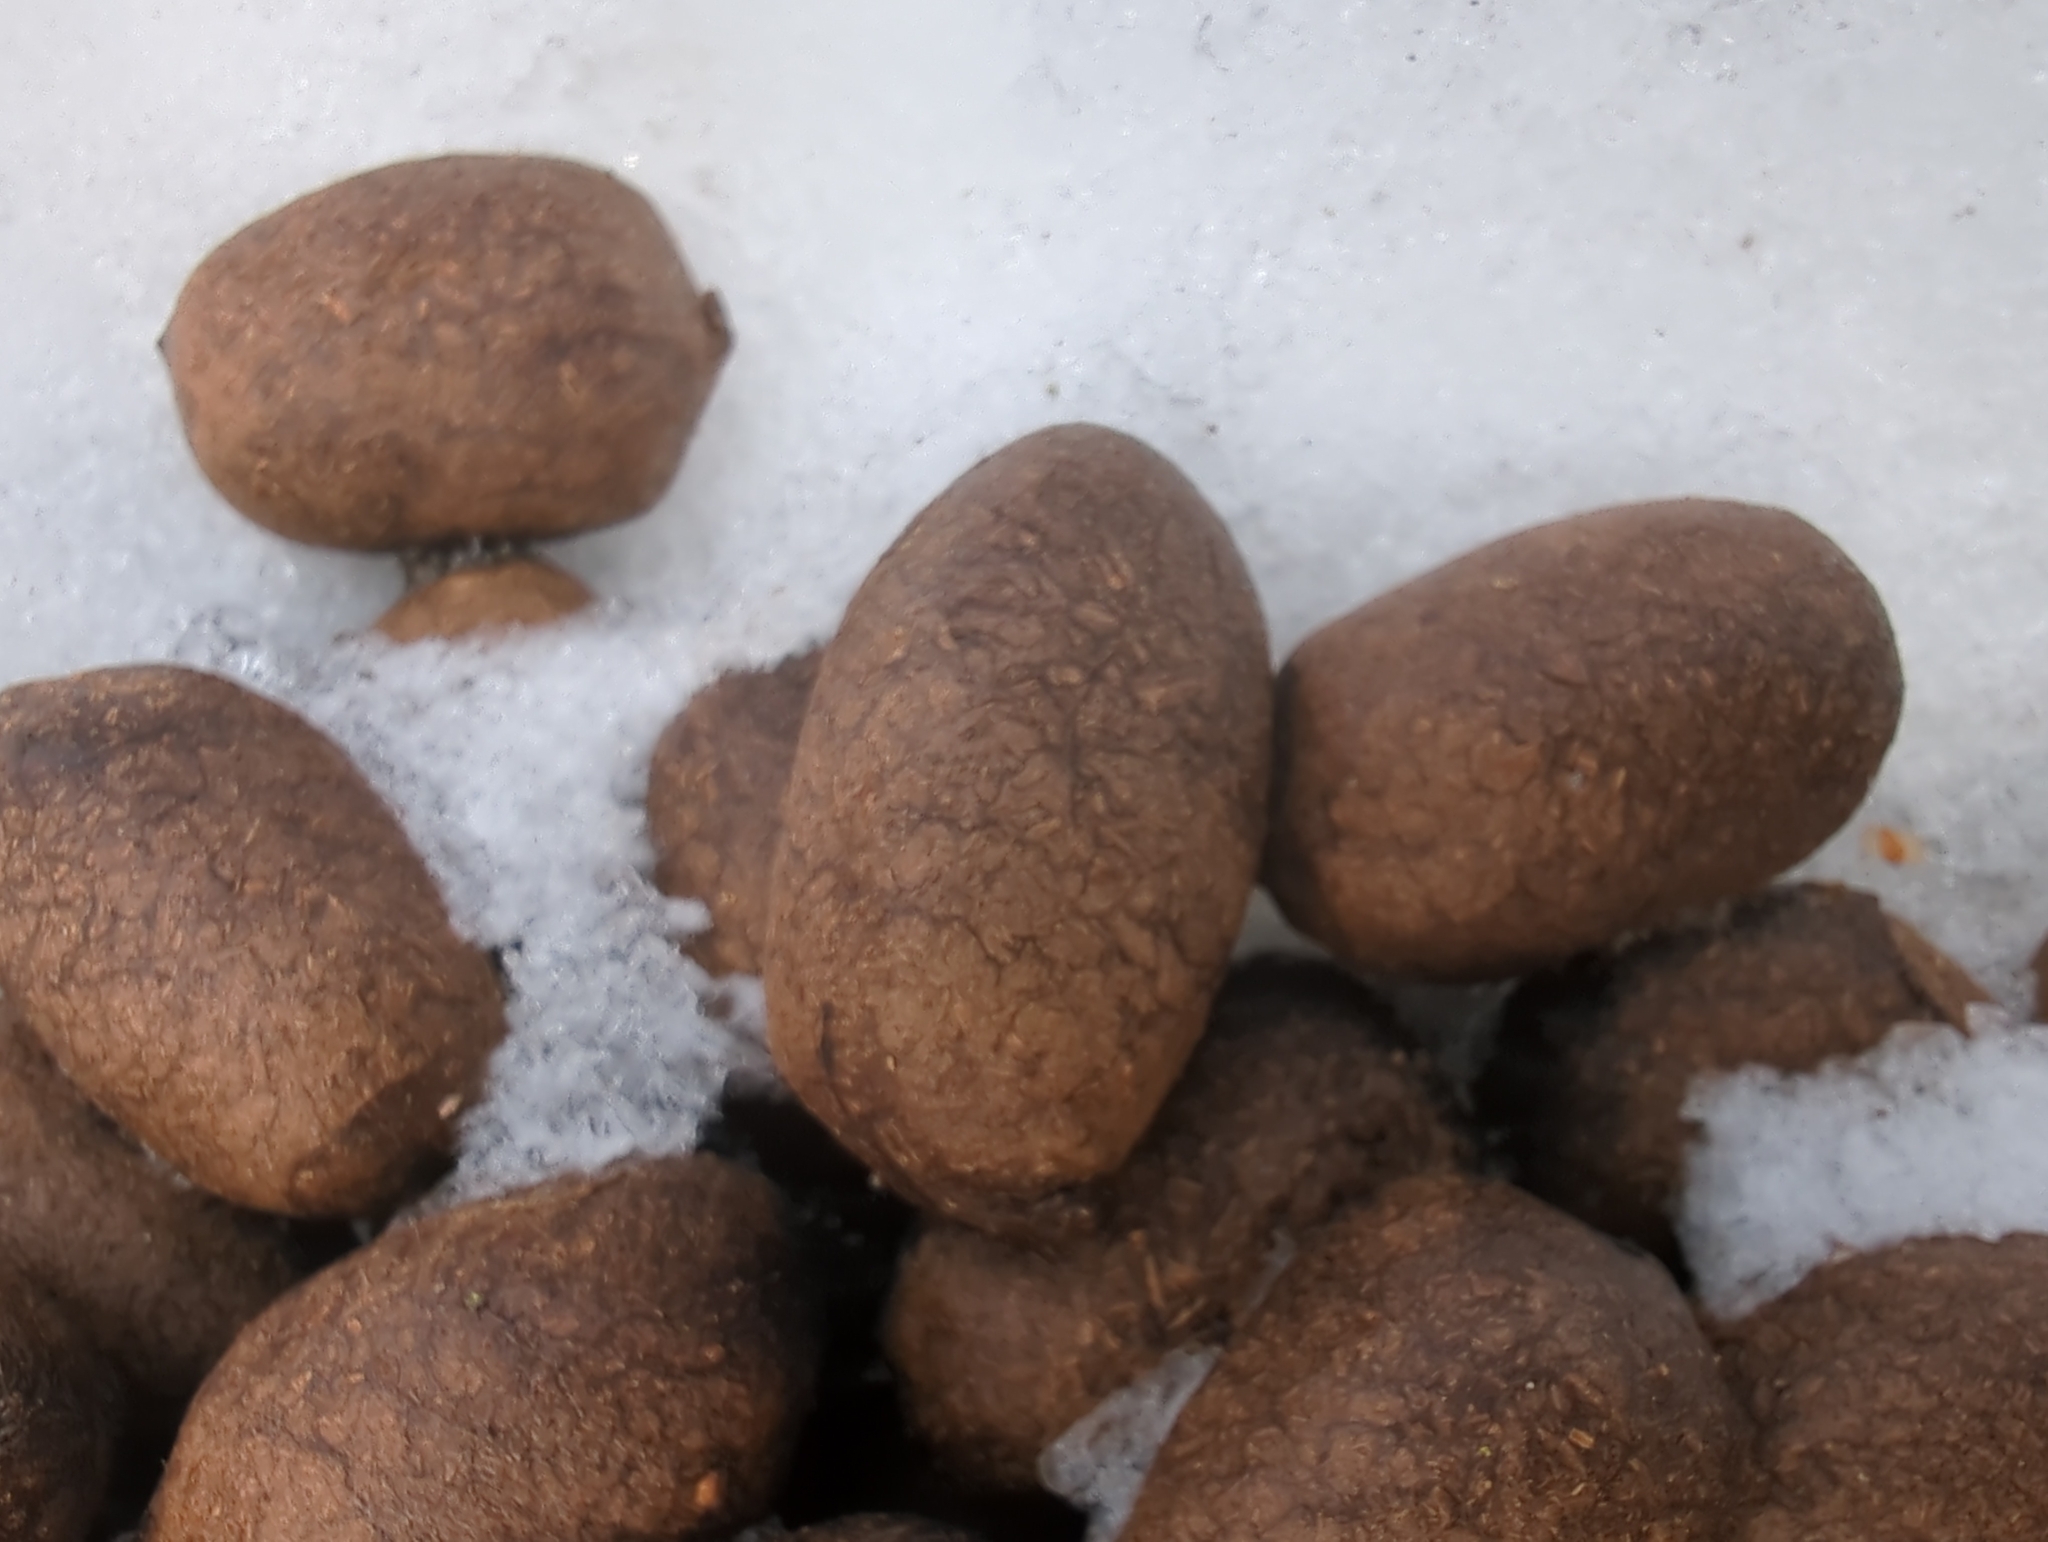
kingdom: Animalia
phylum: Chordata
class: Mammalia
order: Artiodactyla
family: Cervidae
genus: Alces
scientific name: Alces alces
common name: Moose
